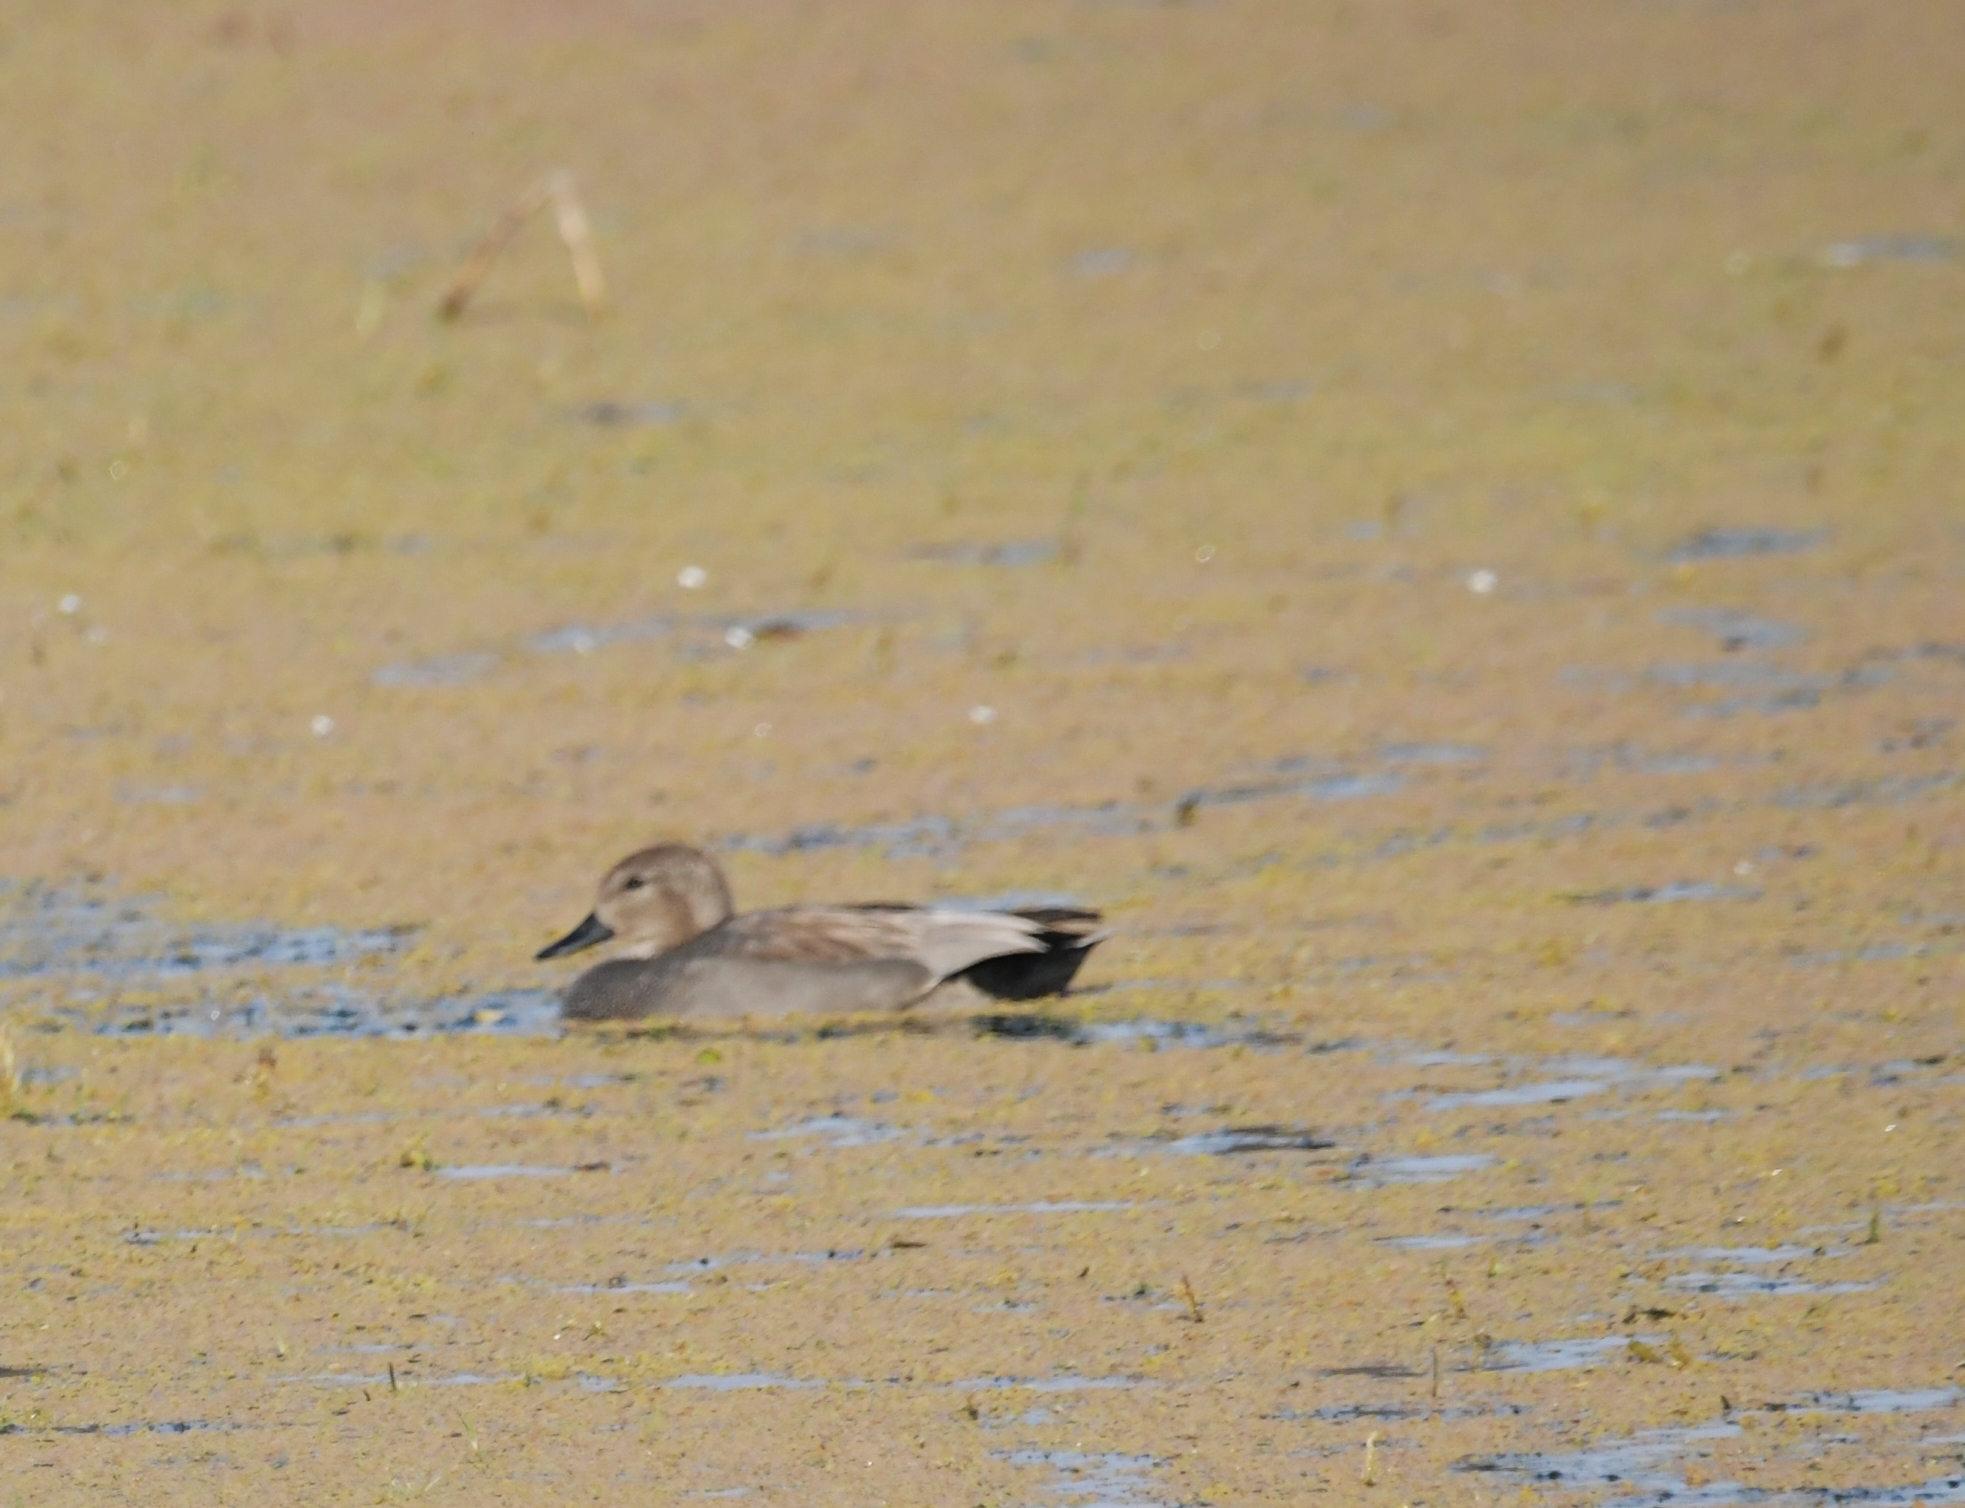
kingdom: Animalia
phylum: Chordata
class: Aves
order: Anseriformes
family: Anatidae
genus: Mareca
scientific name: Mareca strepera
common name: Gadwall
